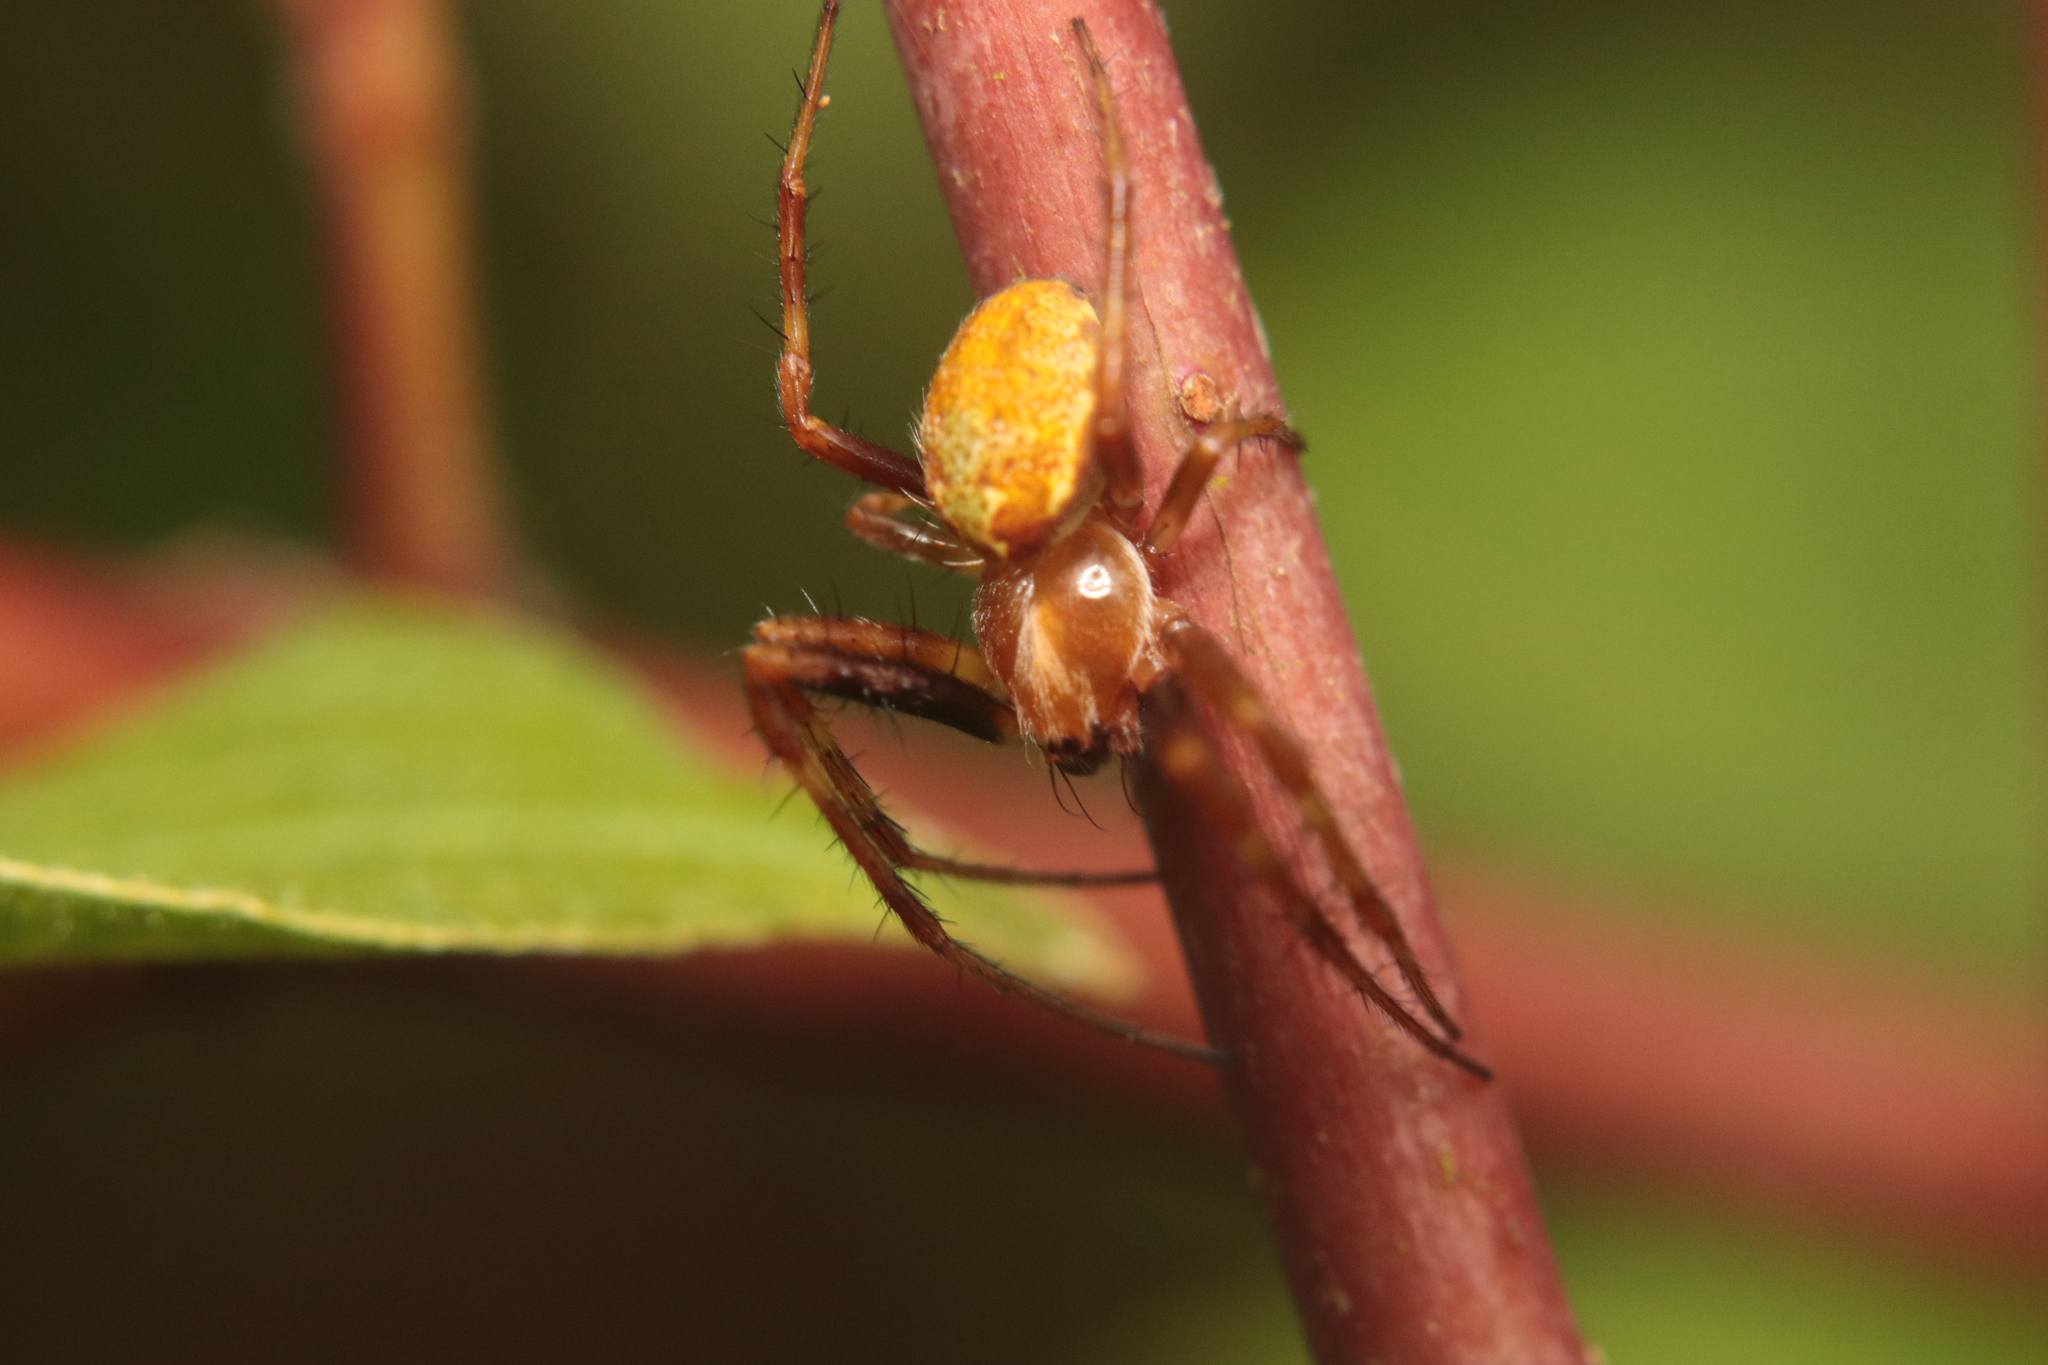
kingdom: Animalia
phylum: Arthropoda
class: Arachnida
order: Araneae
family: Araneidae
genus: Novaranea
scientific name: Novaranea queribunda
